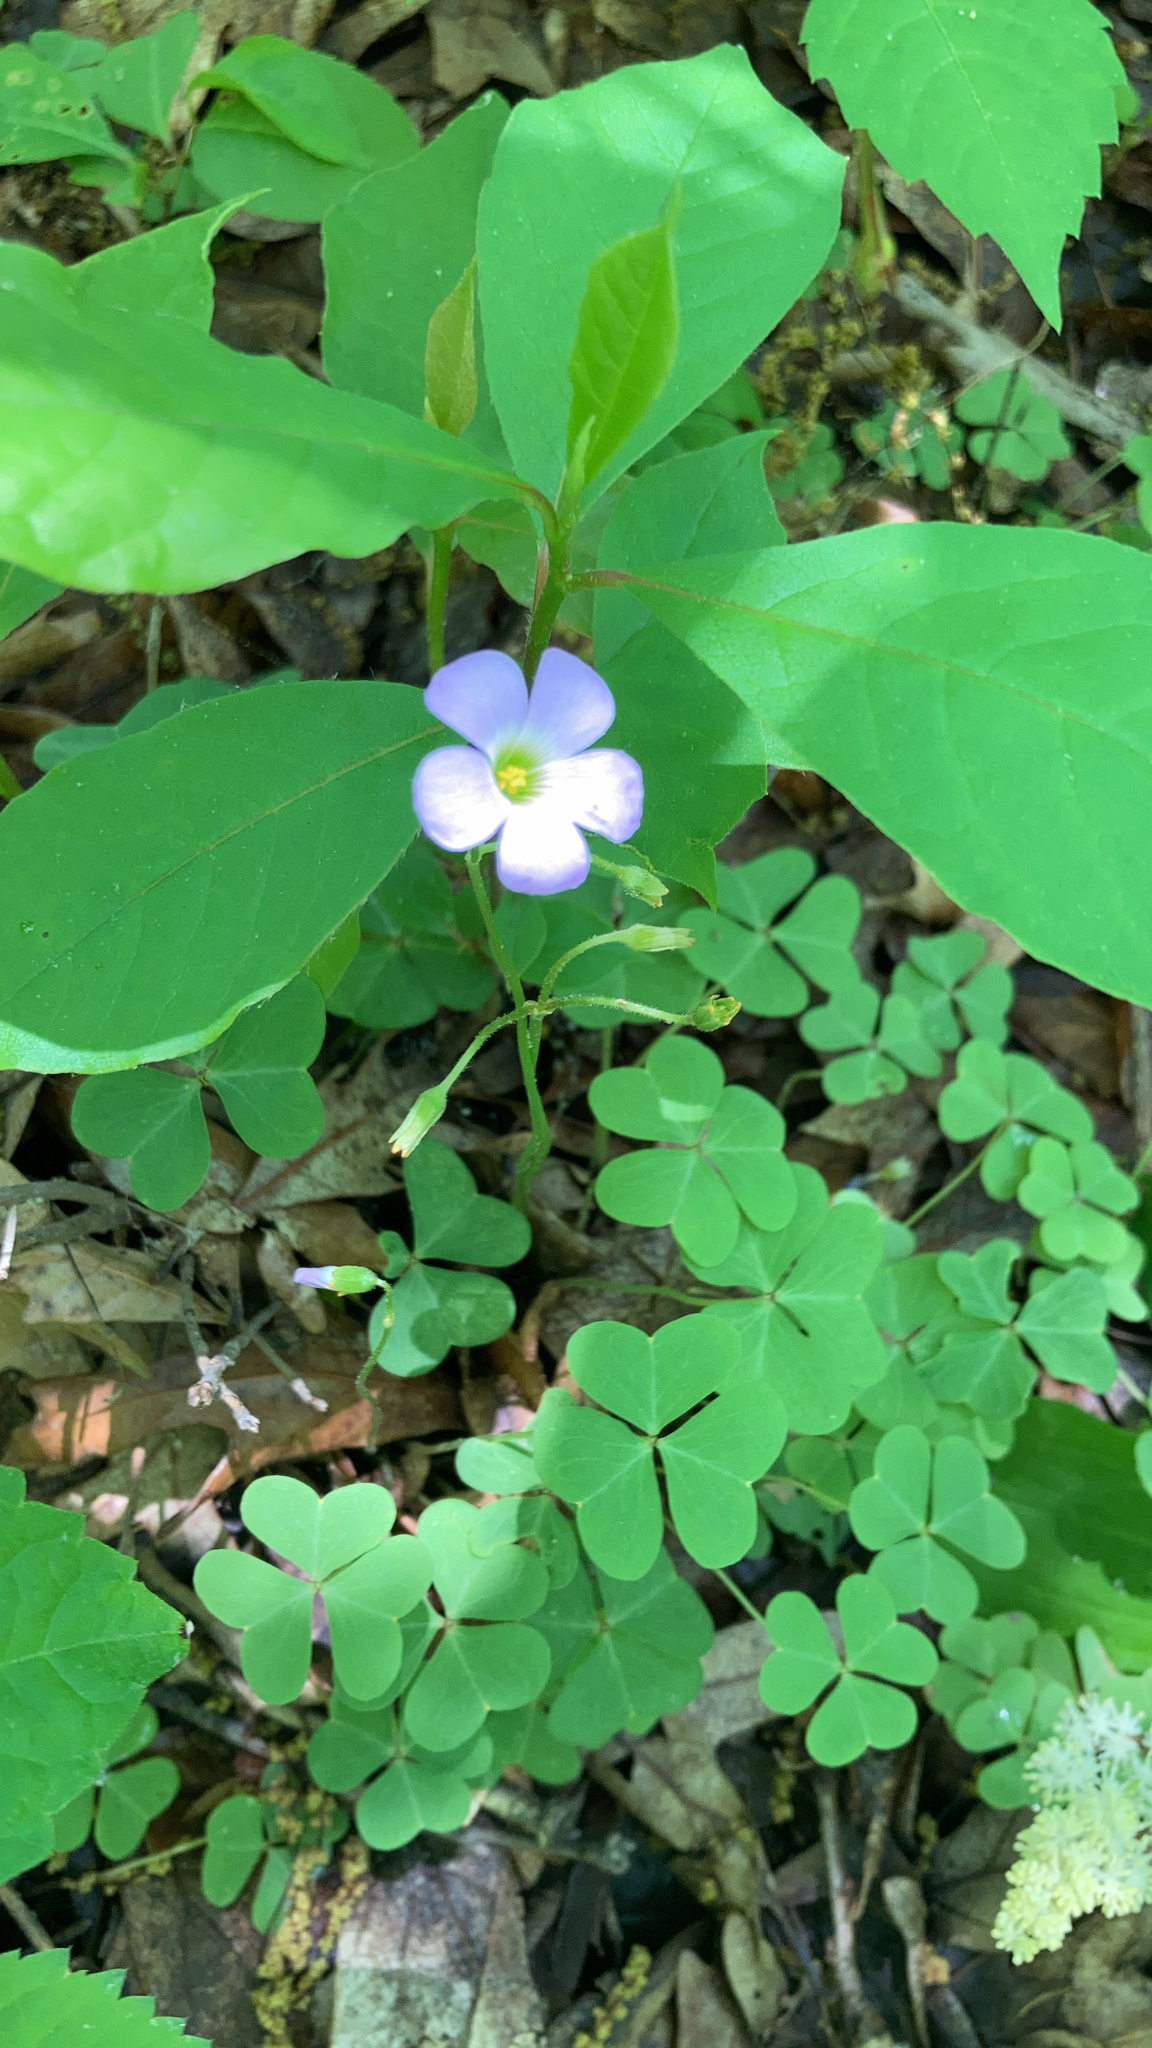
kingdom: Plantae
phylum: Tracheophyta
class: Magnoliopsida
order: Oxalidales
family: Oxalidaceae
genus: Oxalis
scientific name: Oxalis violacea
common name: Violet wood-sorrel
